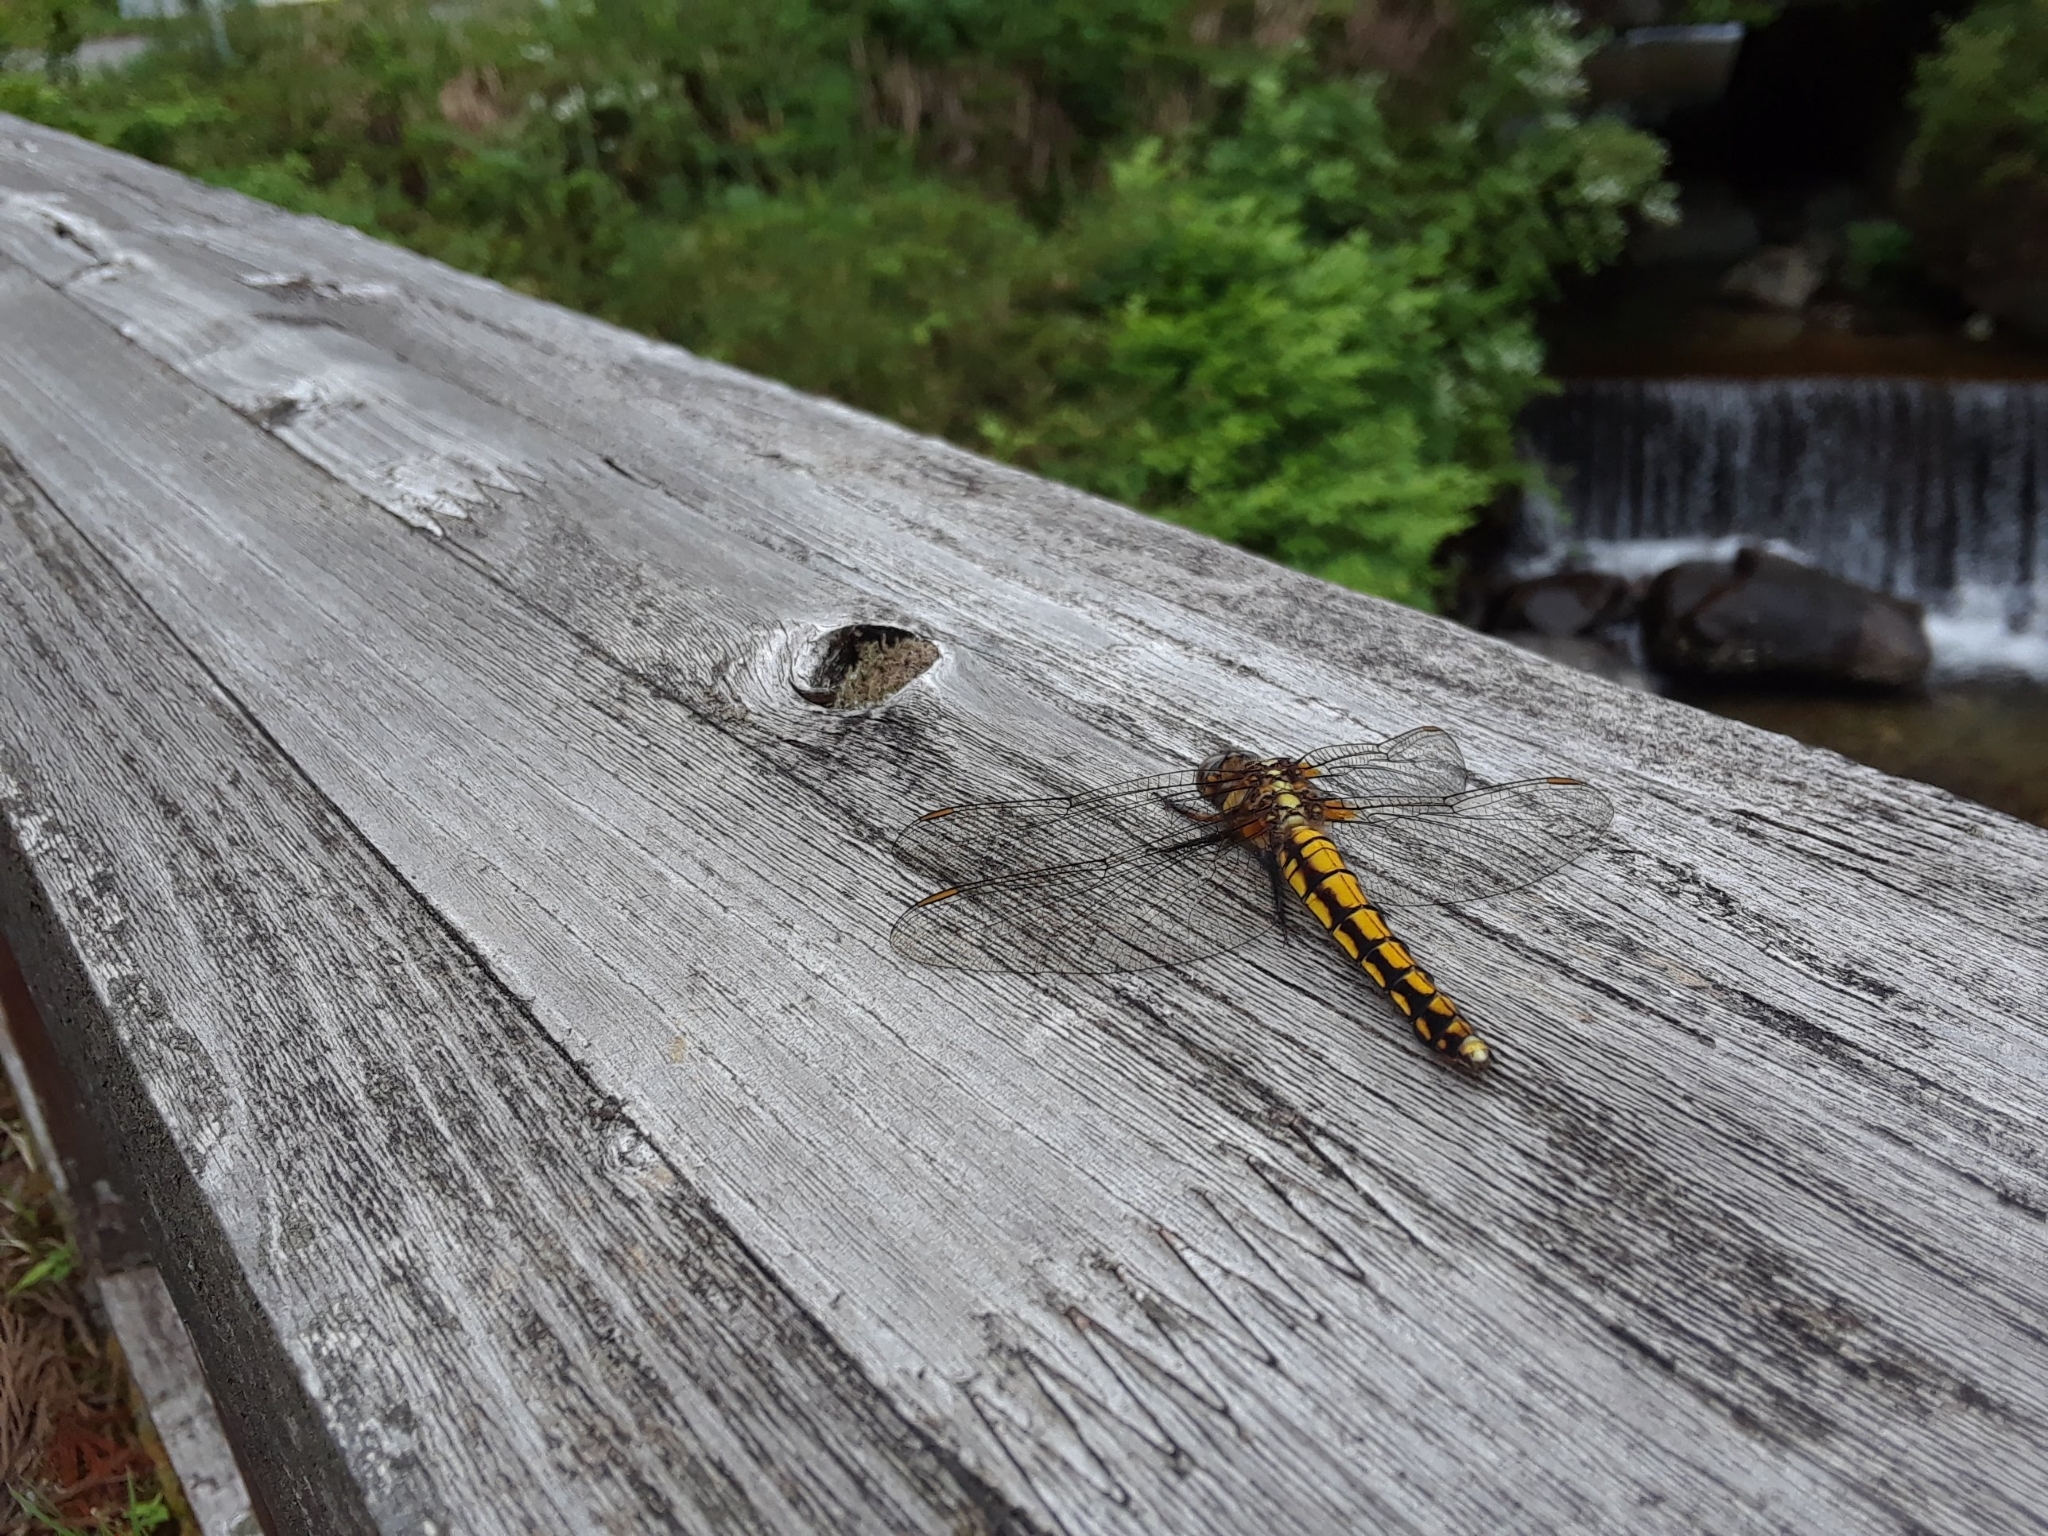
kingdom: Animalia
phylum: Arthropoda
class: Insecta
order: Odonata
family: Libellulidae
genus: Orthetrum
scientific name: Orthetrum japonicum
